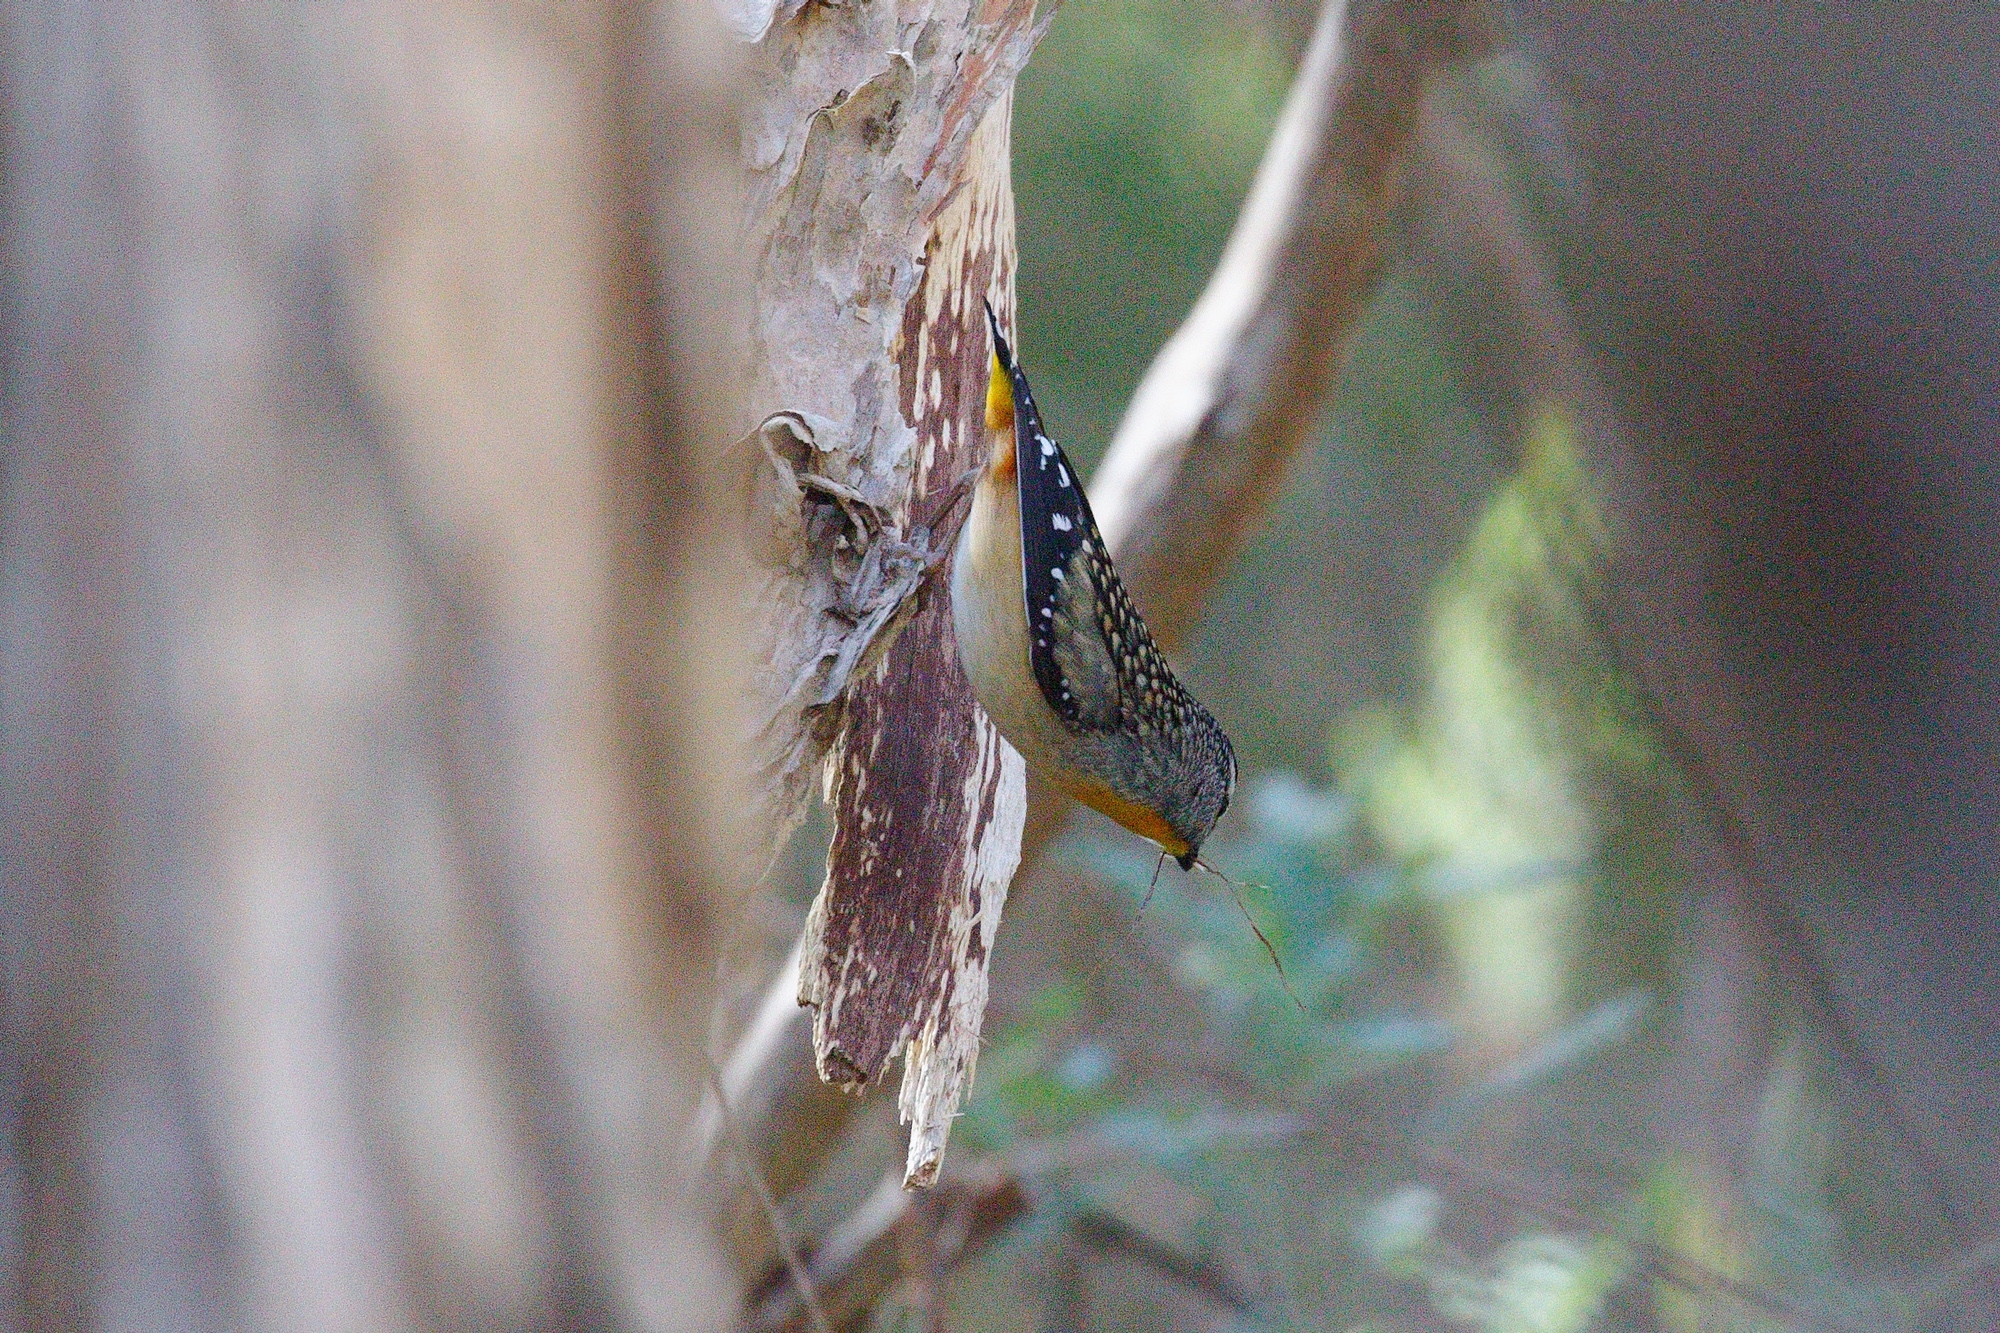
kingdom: Animalia
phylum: Chordata
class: Aves
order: Passeriformes
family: Pardalotidae
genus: Pardalotus
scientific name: Pardalotus punctatus
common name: Spotted pardalote
